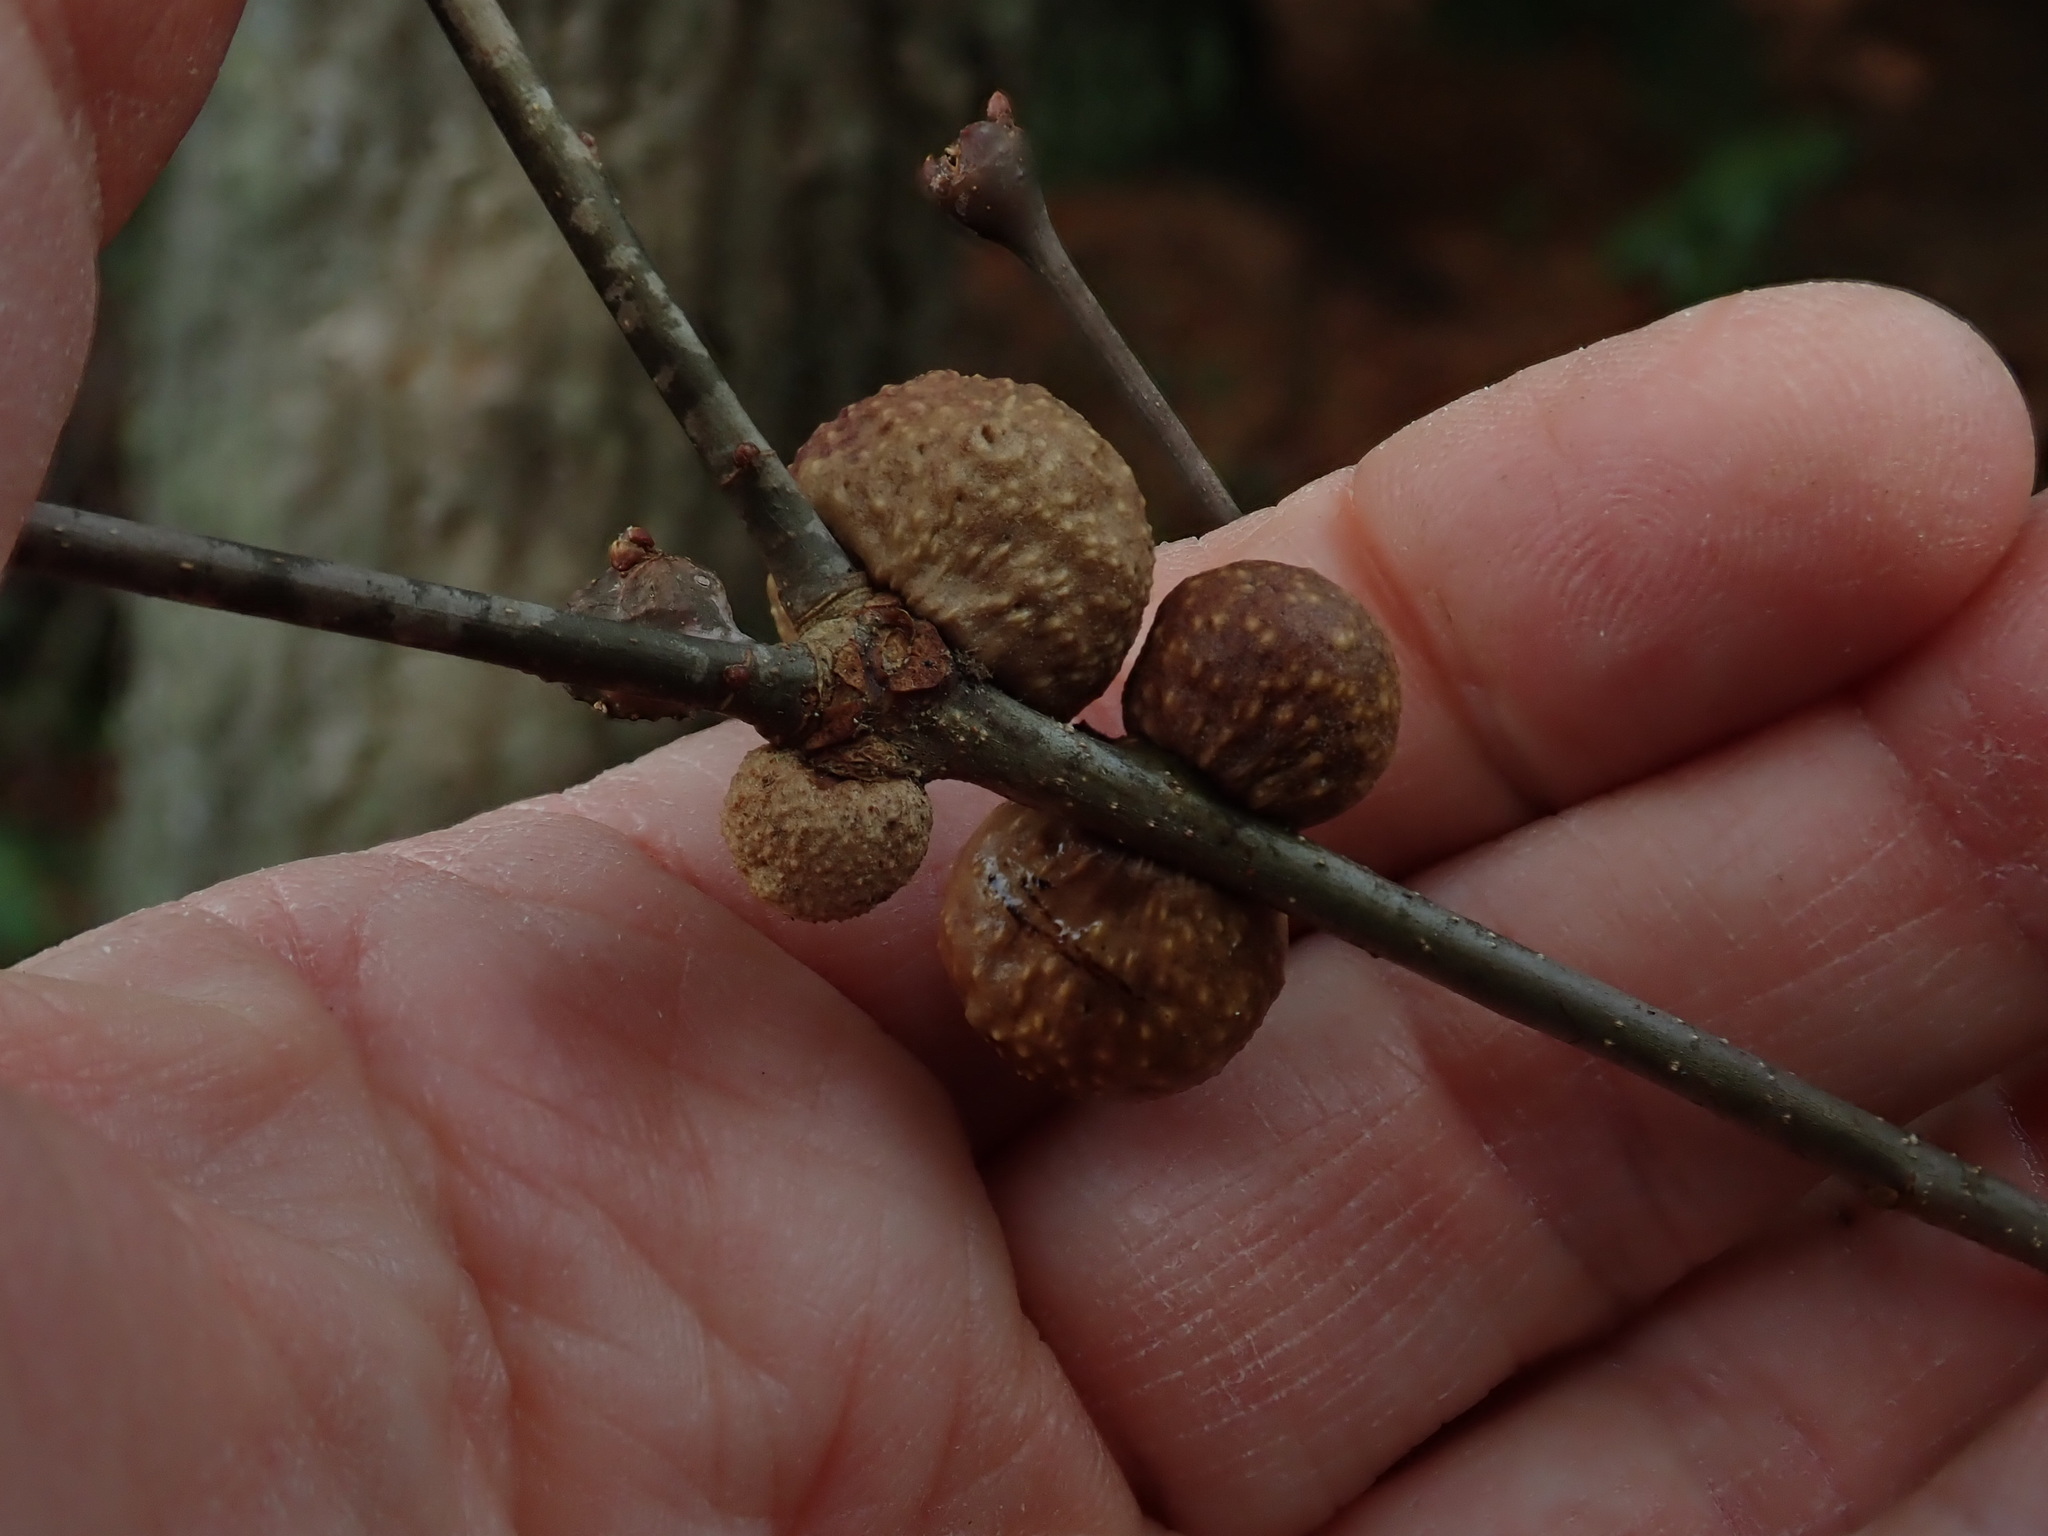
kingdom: Animalia
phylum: Arthropoda
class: Insecta
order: Hymenoptera
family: Cynipidae
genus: Disholcaspis
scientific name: Disholcaspis quercusglobulus
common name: Round bullet gall wasp
